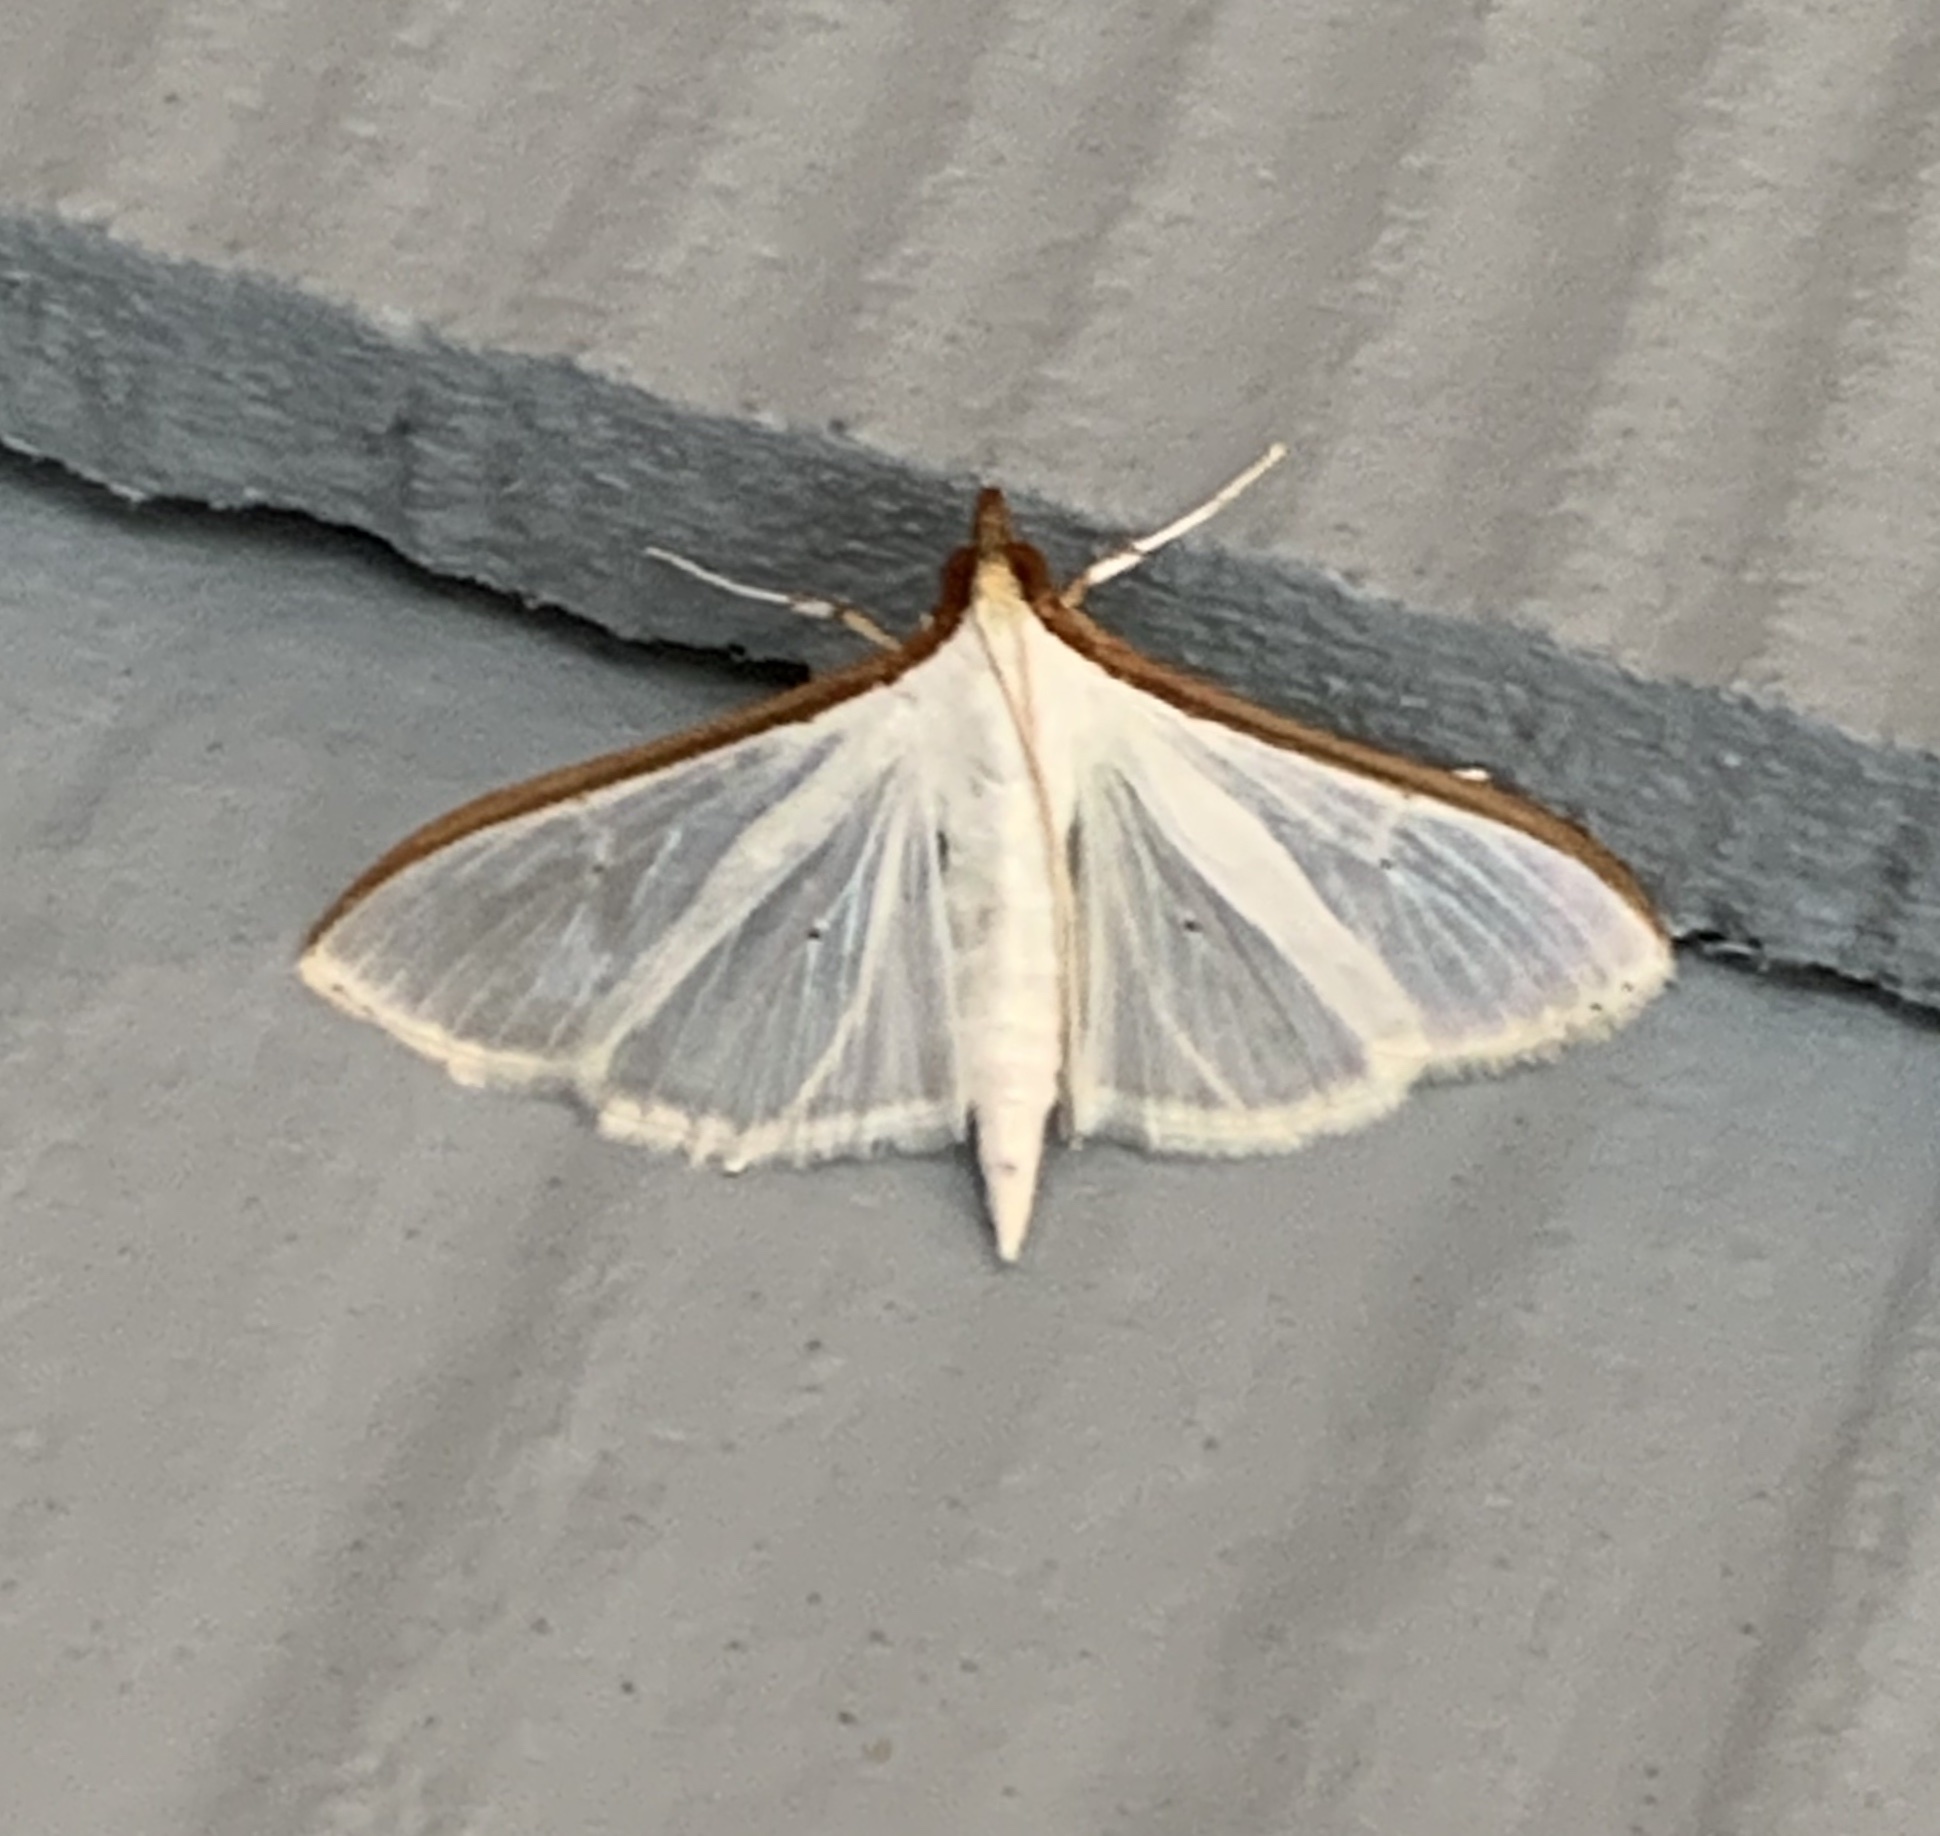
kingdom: Animalia
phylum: Arthropoda
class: Insecta
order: Lepidoptera
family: Crambidae
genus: Palpita
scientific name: Palpita quadristigmalis
